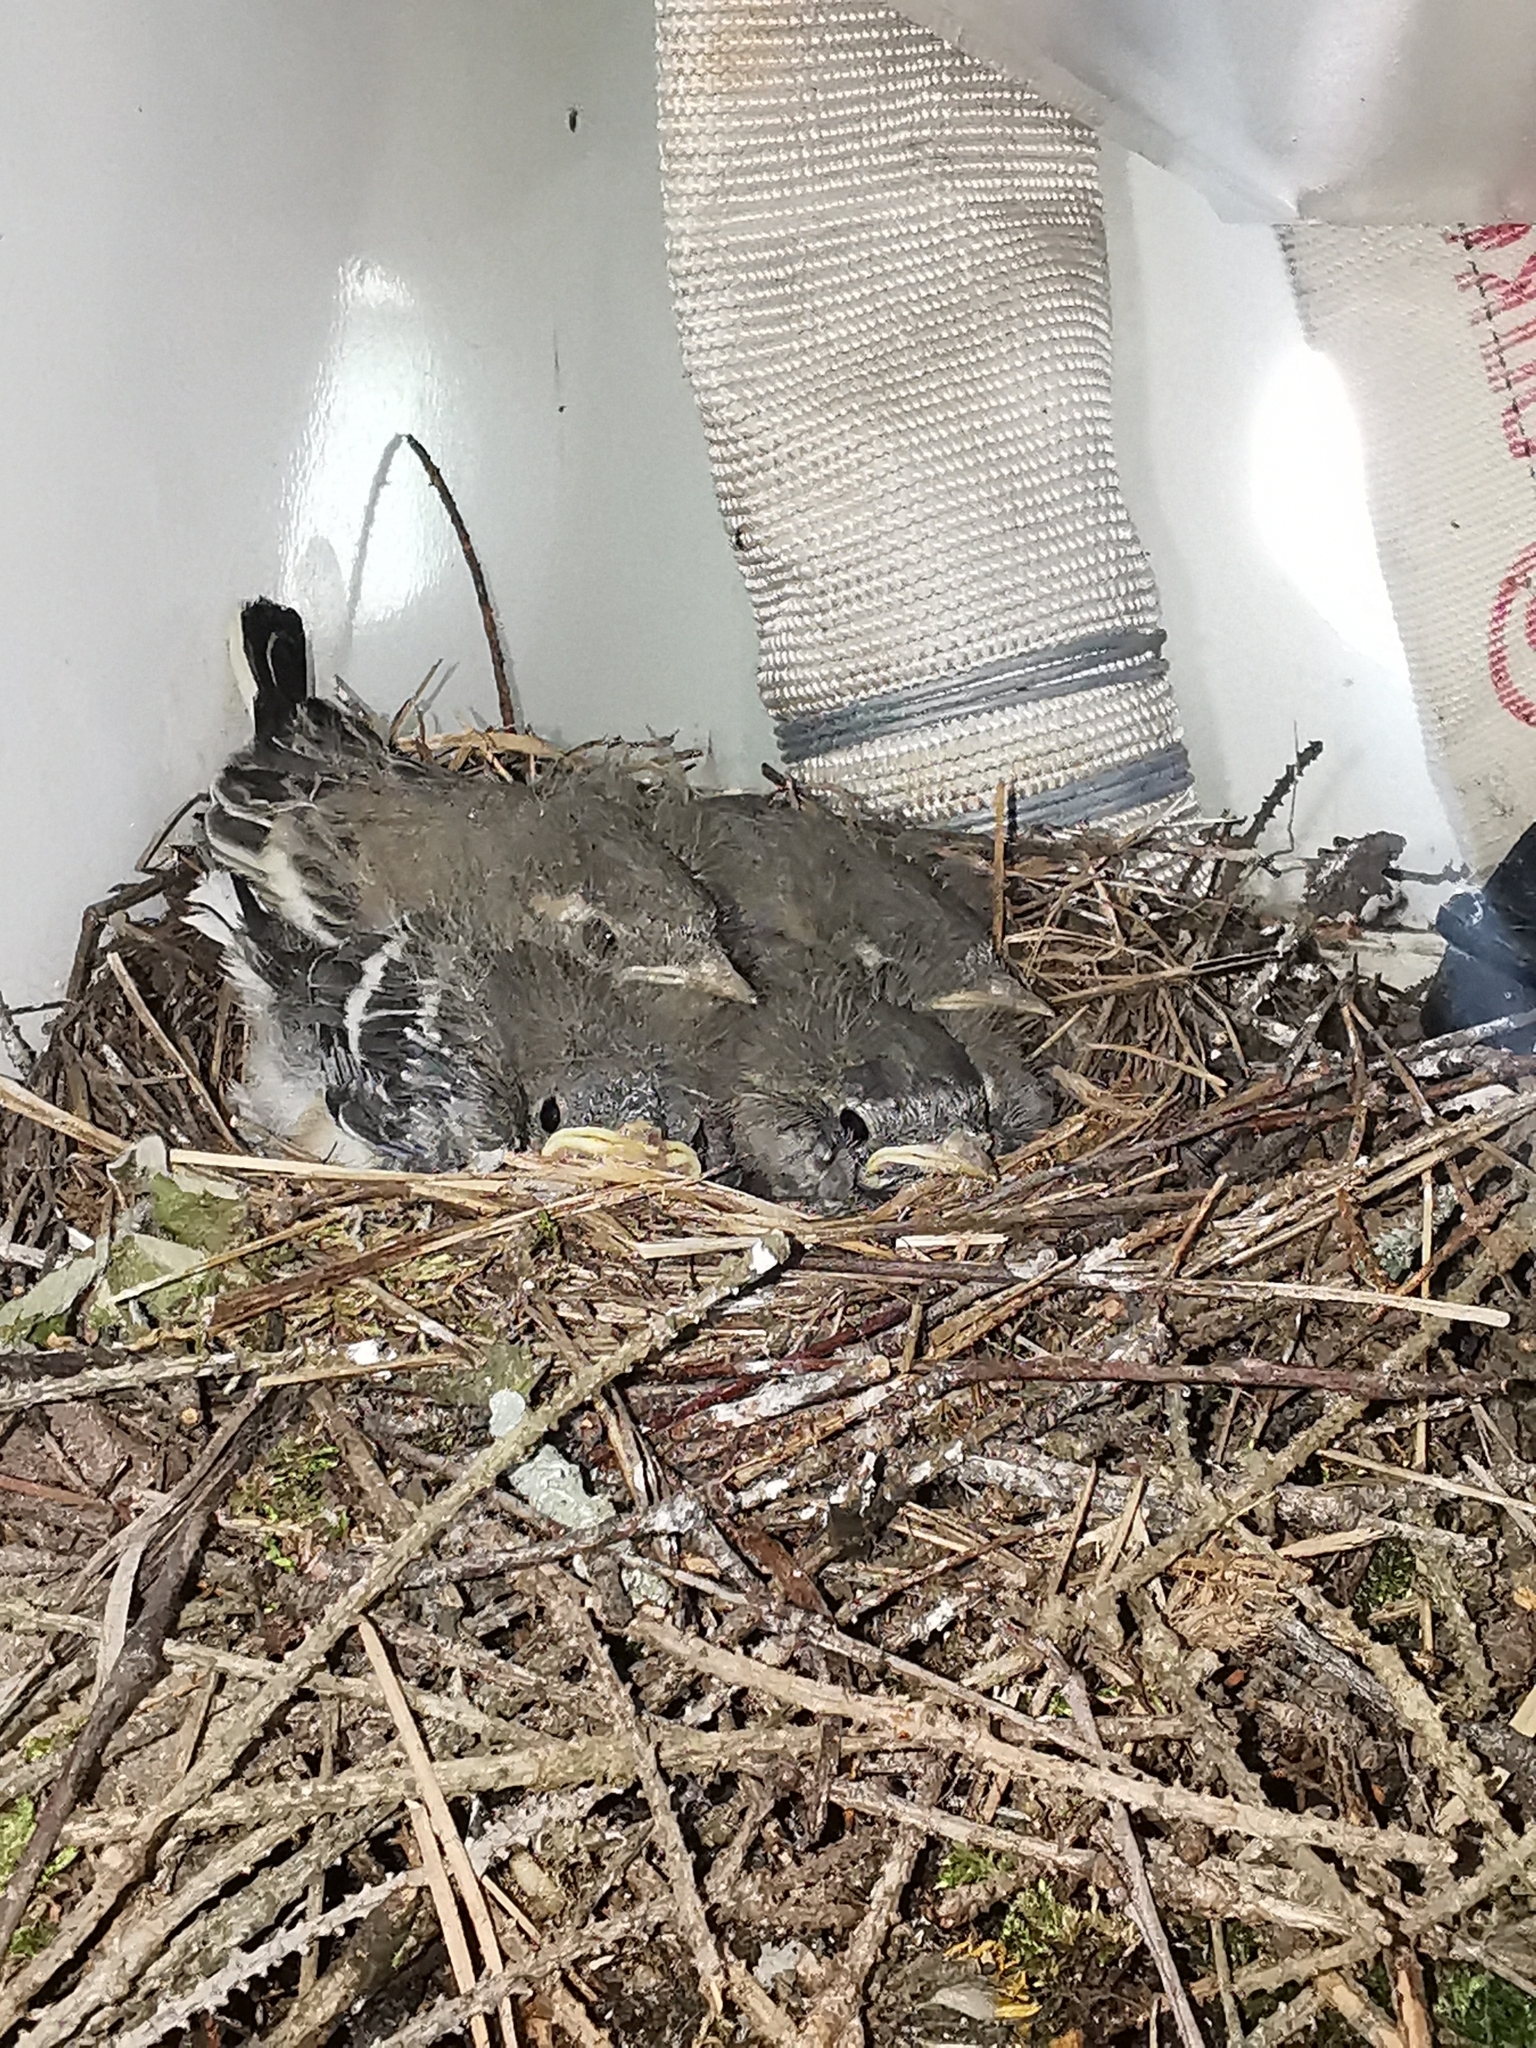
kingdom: Animalia
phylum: Chordata
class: Aves
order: Passeriformes
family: Motacillidae
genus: Motacilla
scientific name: Motacilla alba
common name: White wagtail
